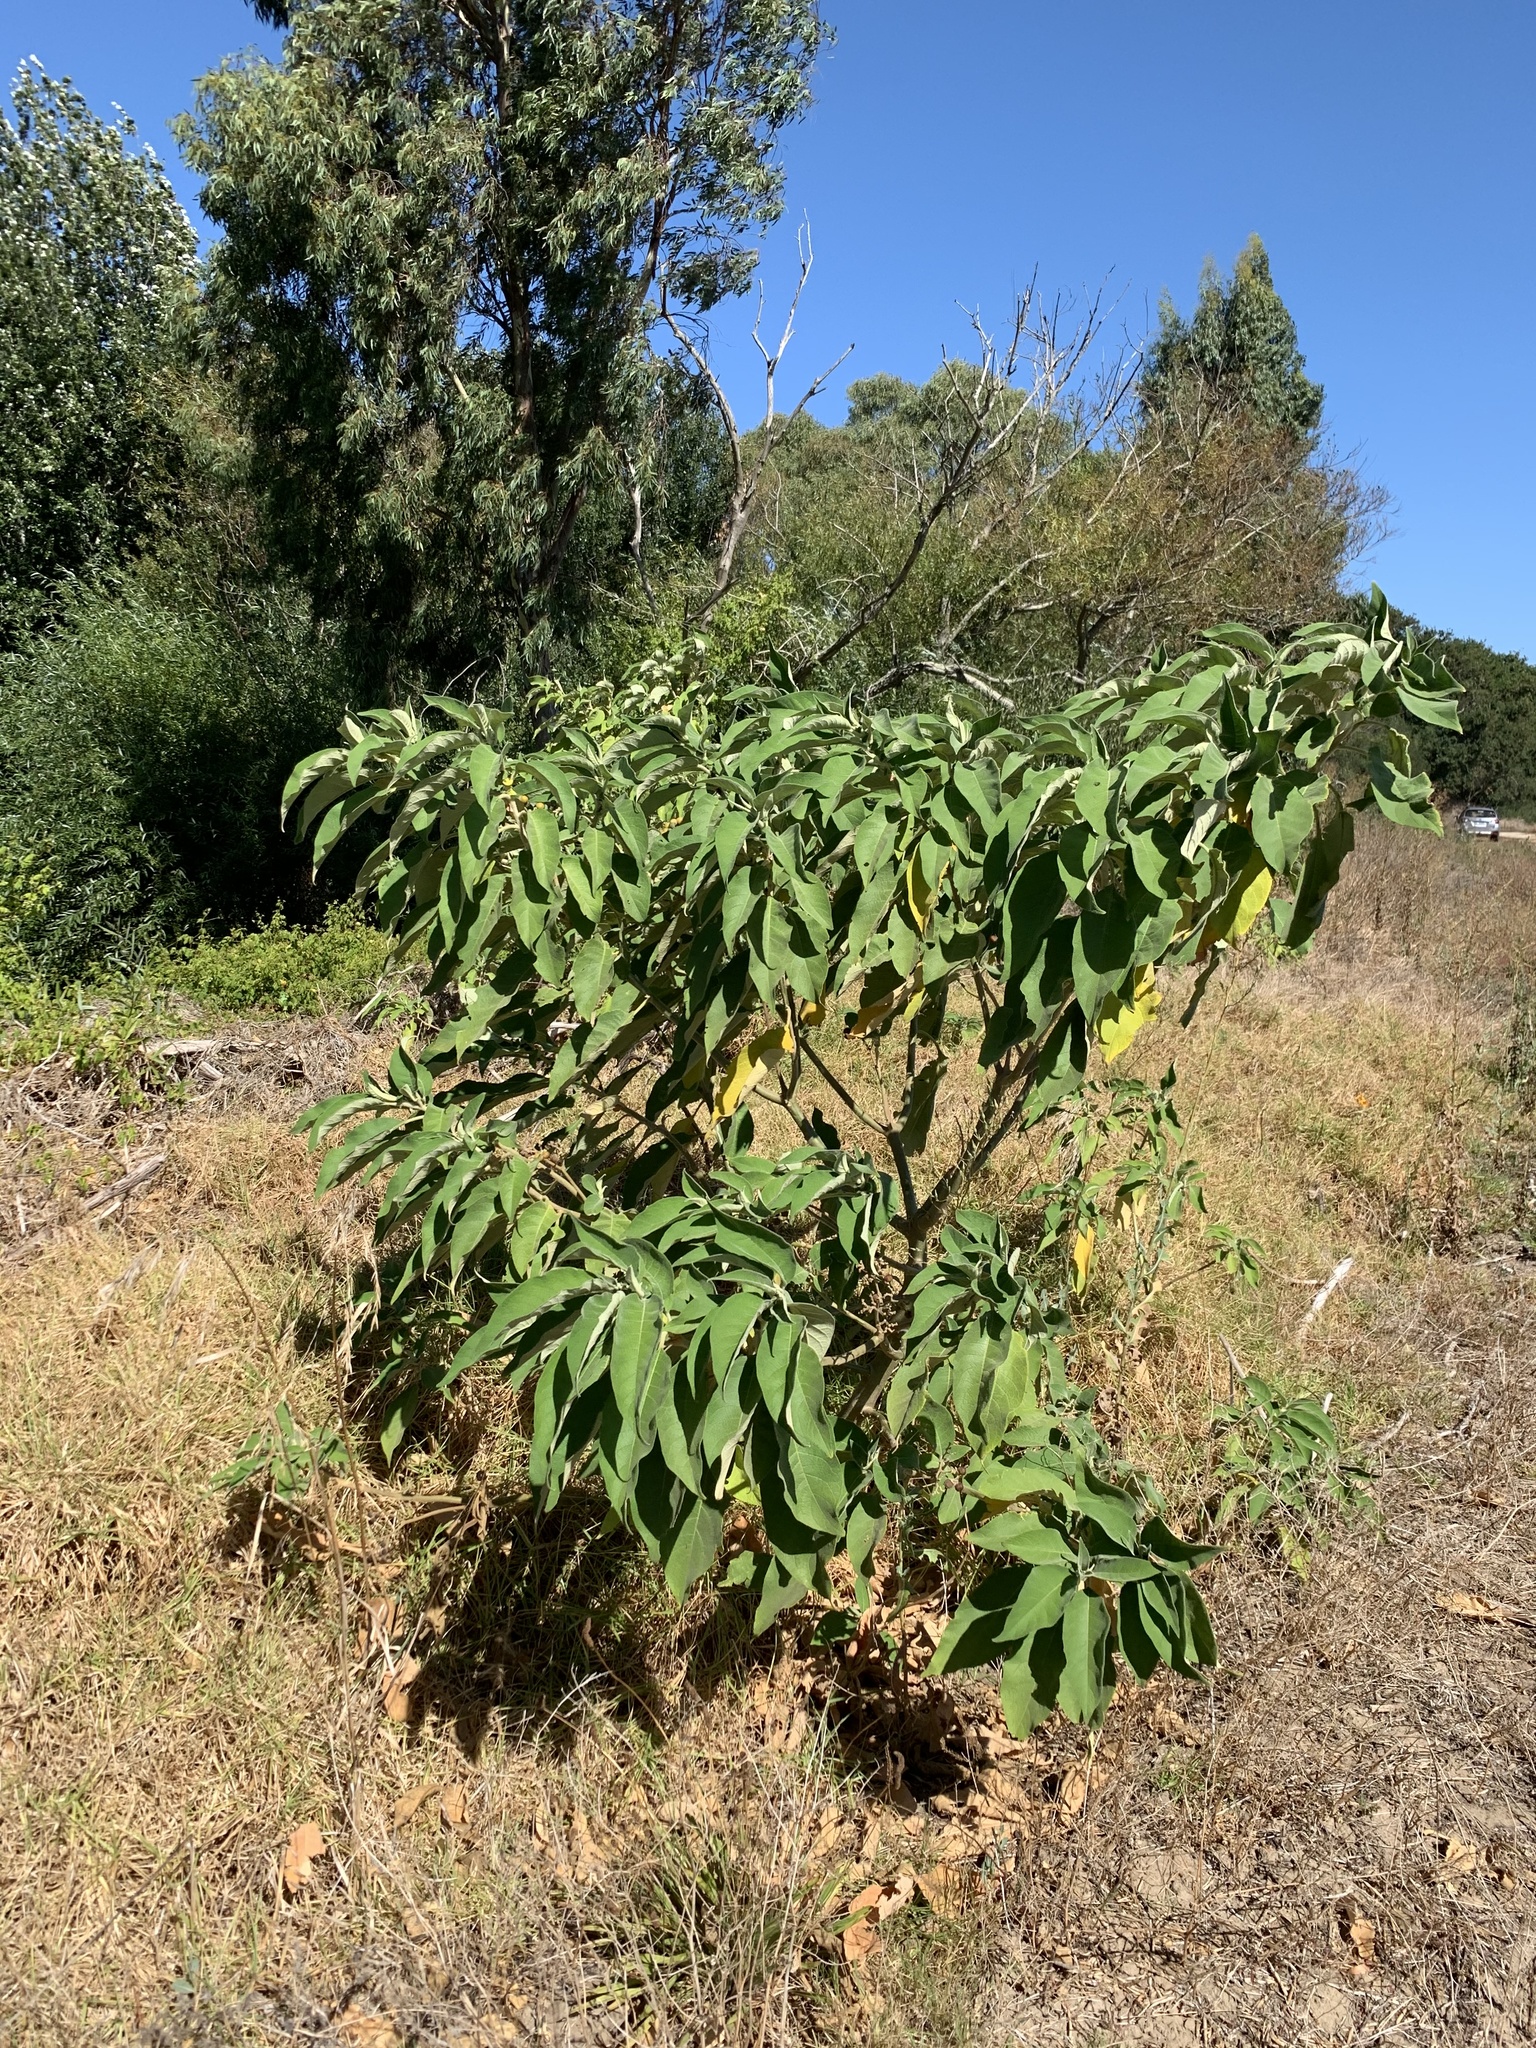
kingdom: Plantae
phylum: Tracheophyta
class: Magnoliopsida
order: Solanales
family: Solanaceae
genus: Solanum
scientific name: Solanum mauritianum
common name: Earleaf nightshade
